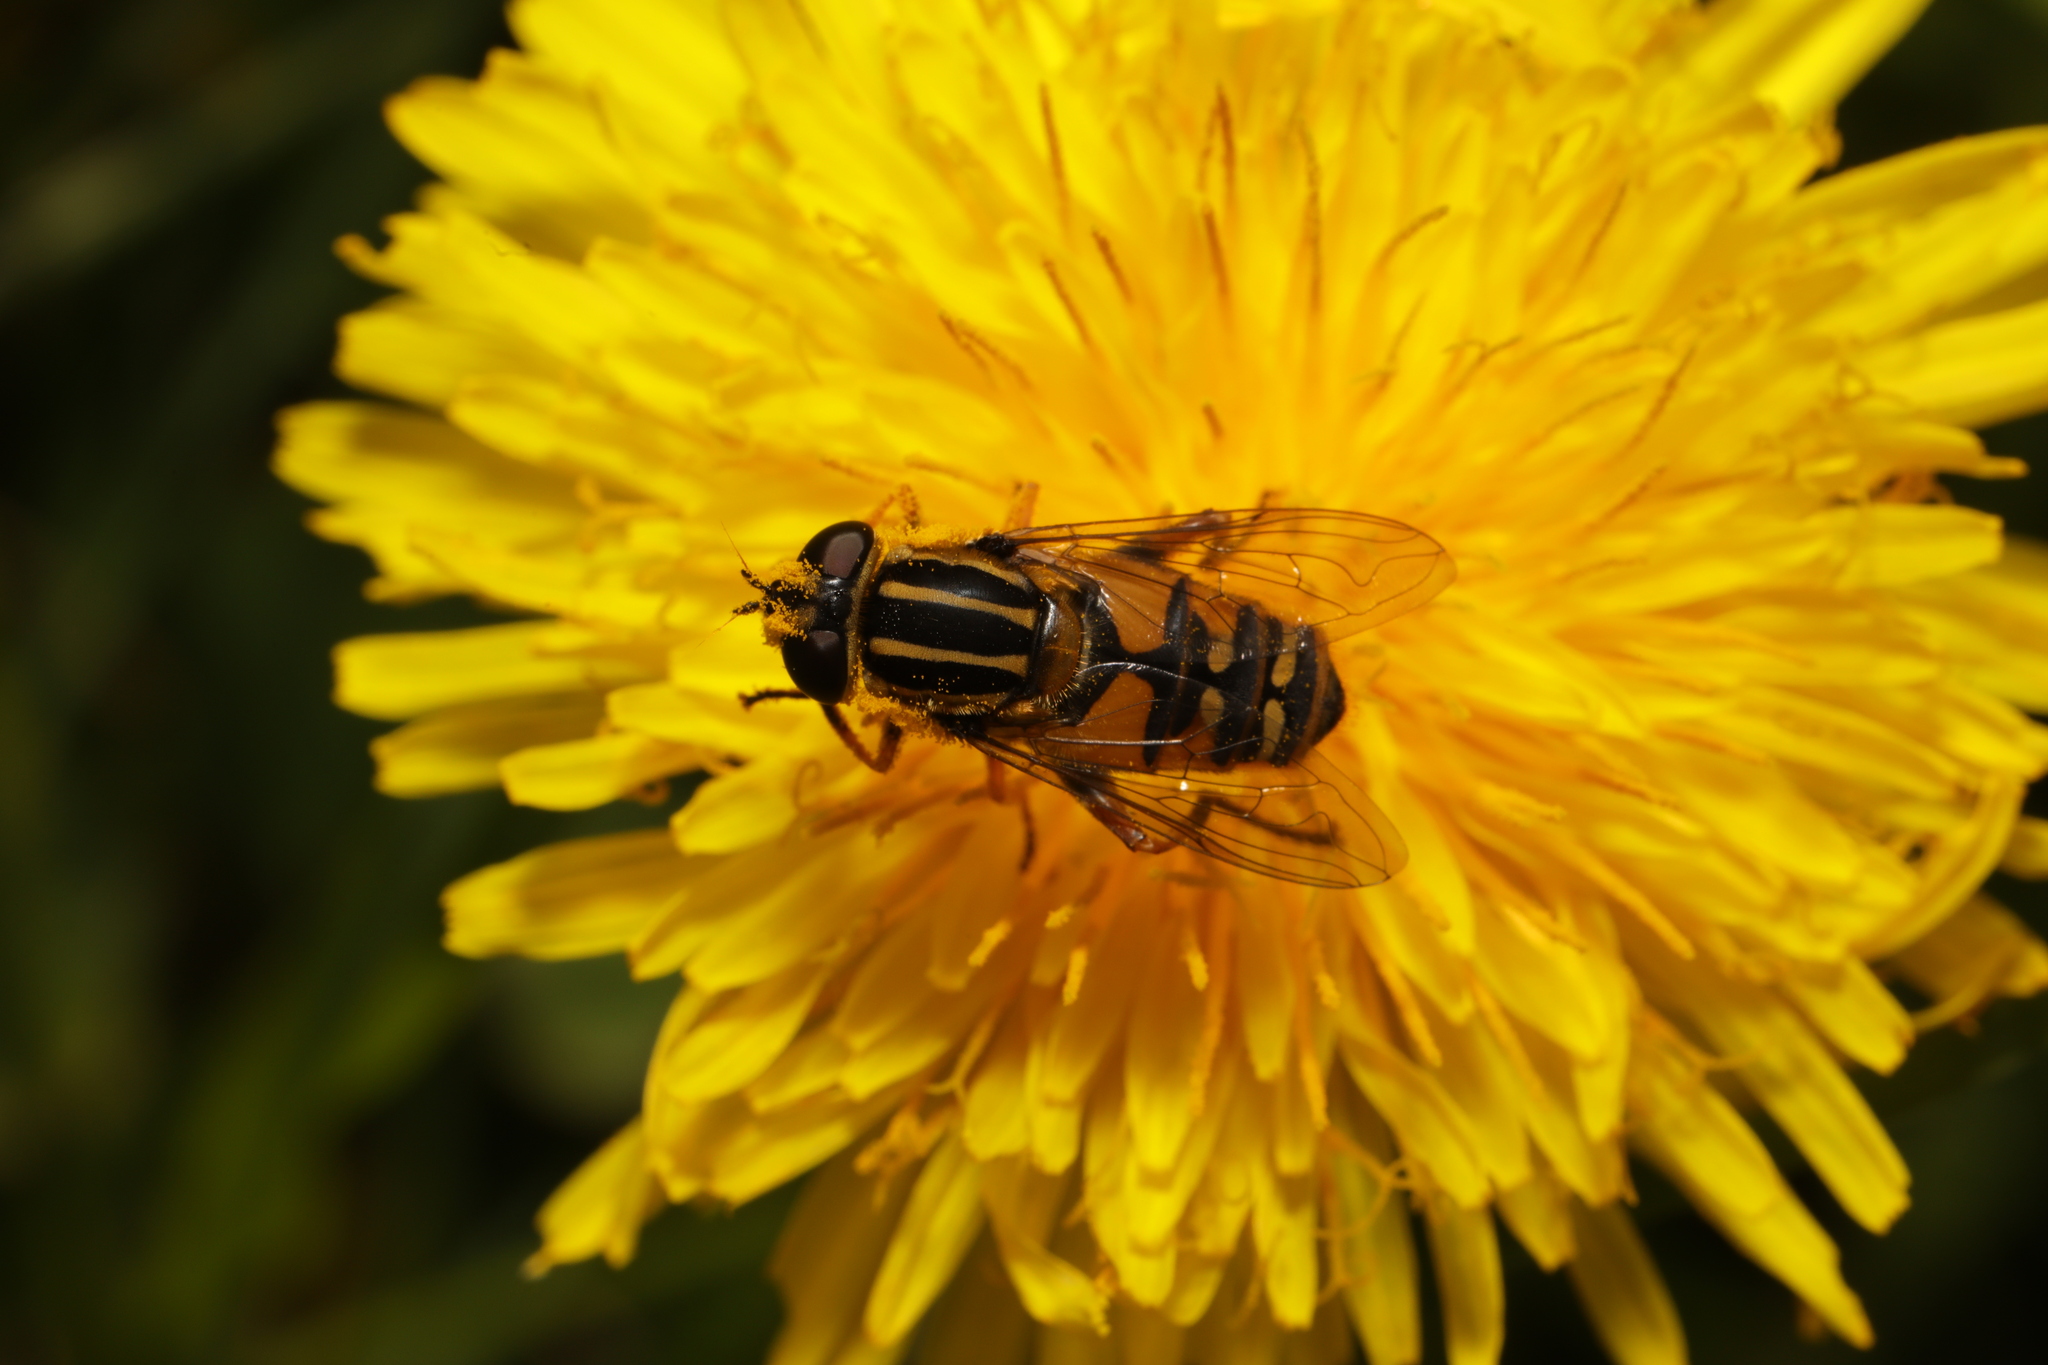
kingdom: Animalia
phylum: Arthropoda
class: Insecta
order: Diptera
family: Syrphidae
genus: Helophilus
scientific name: Helophilus pendulus
